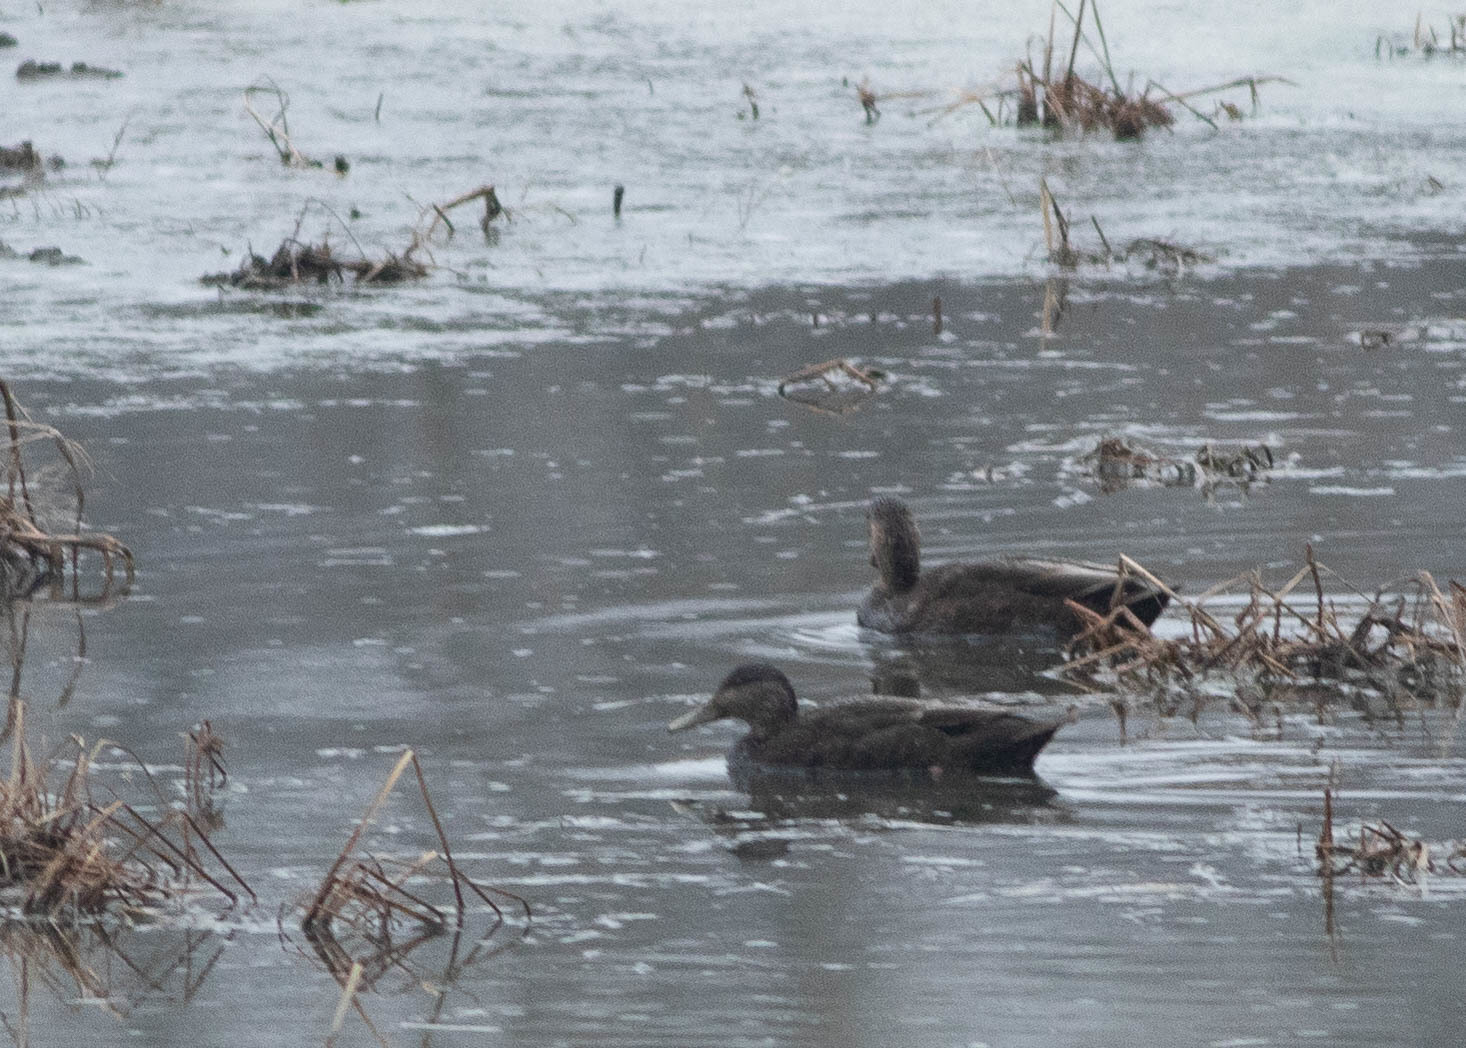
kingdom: Animalia
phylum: Chordata
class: Aves
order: Anseriformes
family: Anatidae
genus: Anas
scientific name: Anas rubripes
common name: American black duck
